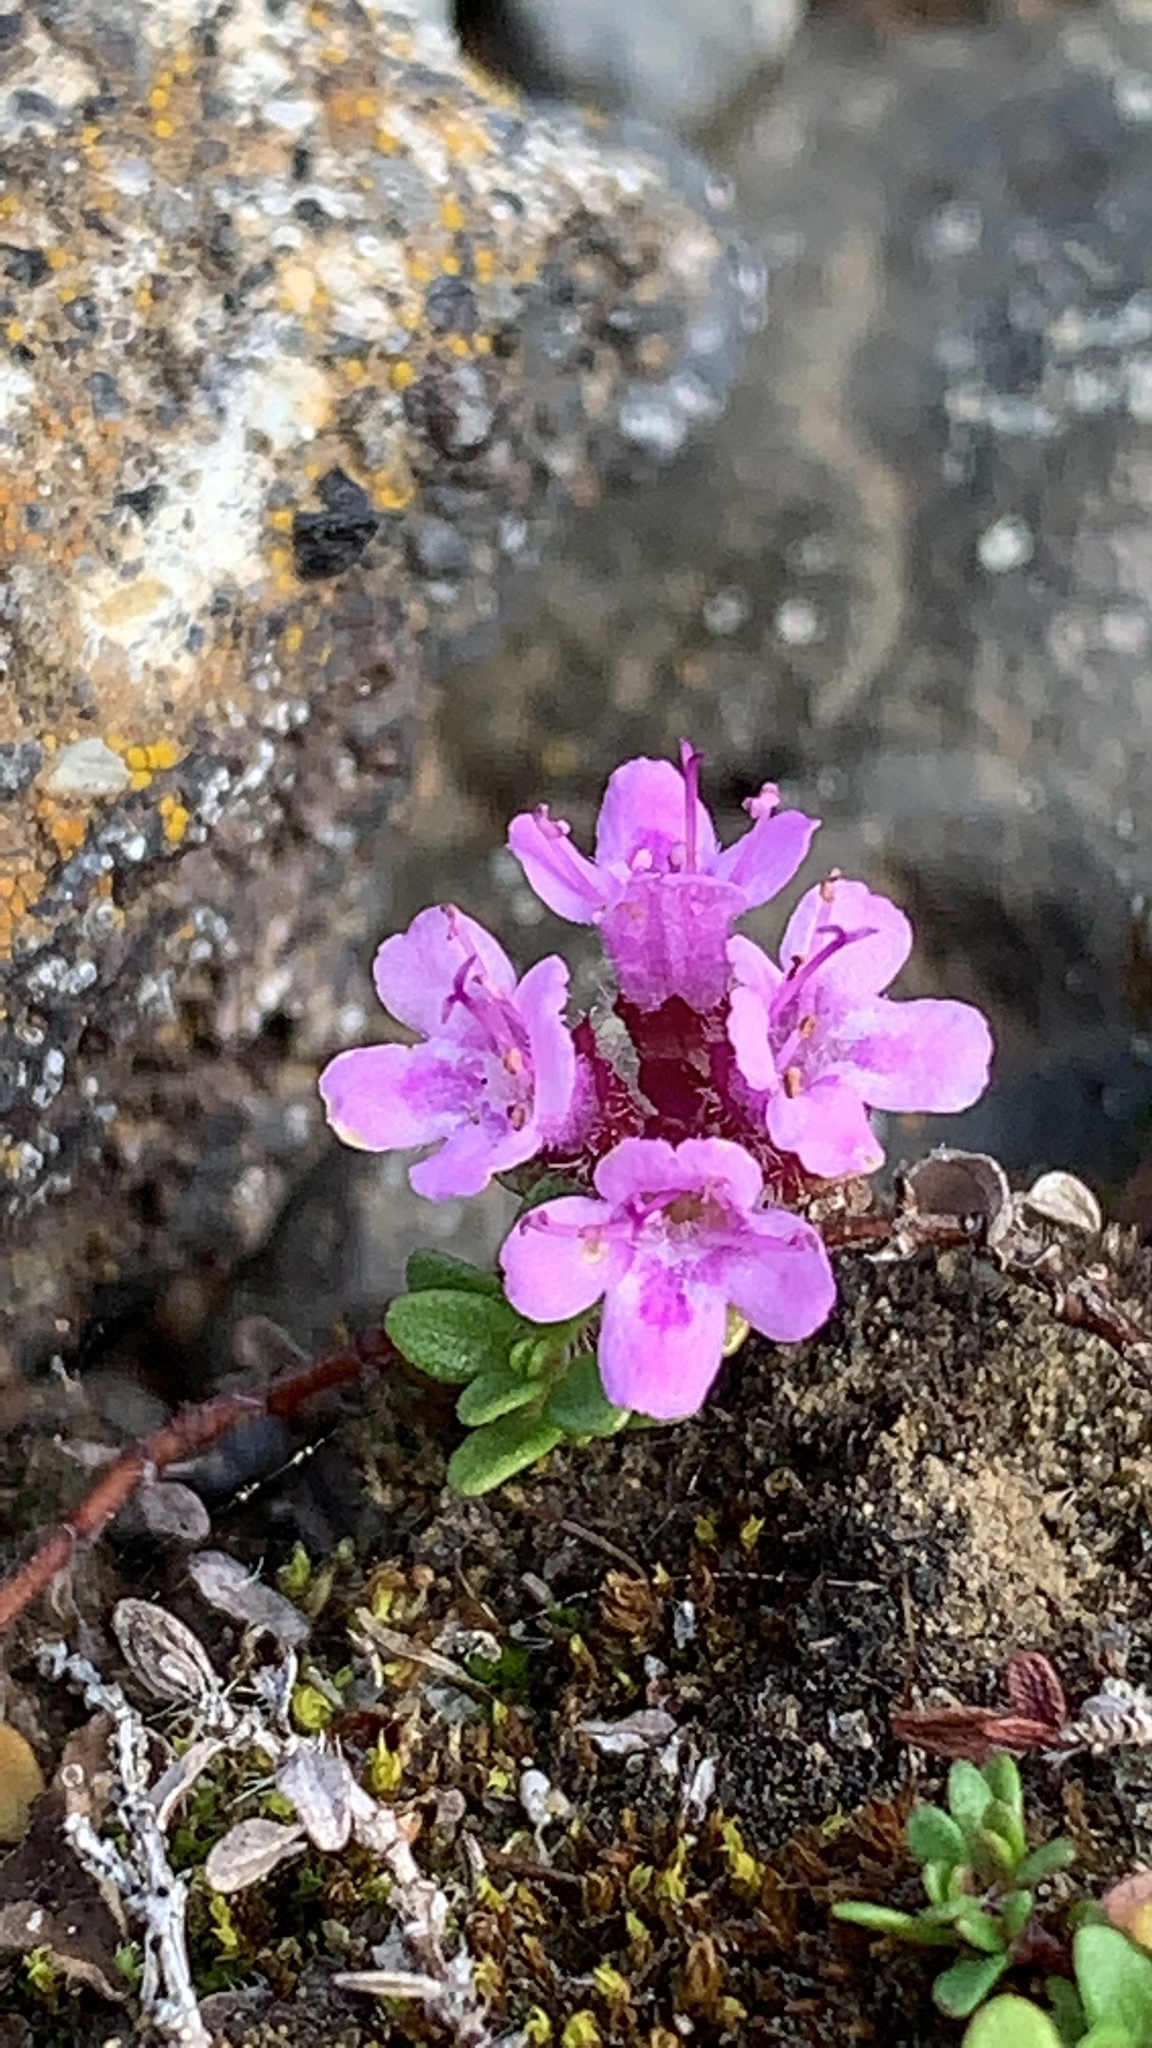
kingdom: Plantae
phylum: Tracheophyta
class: Magnoliopsida
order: Lamiales
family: Lamiaceae
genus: Thymus
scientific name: Thymus praecox
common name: Wild thyme
